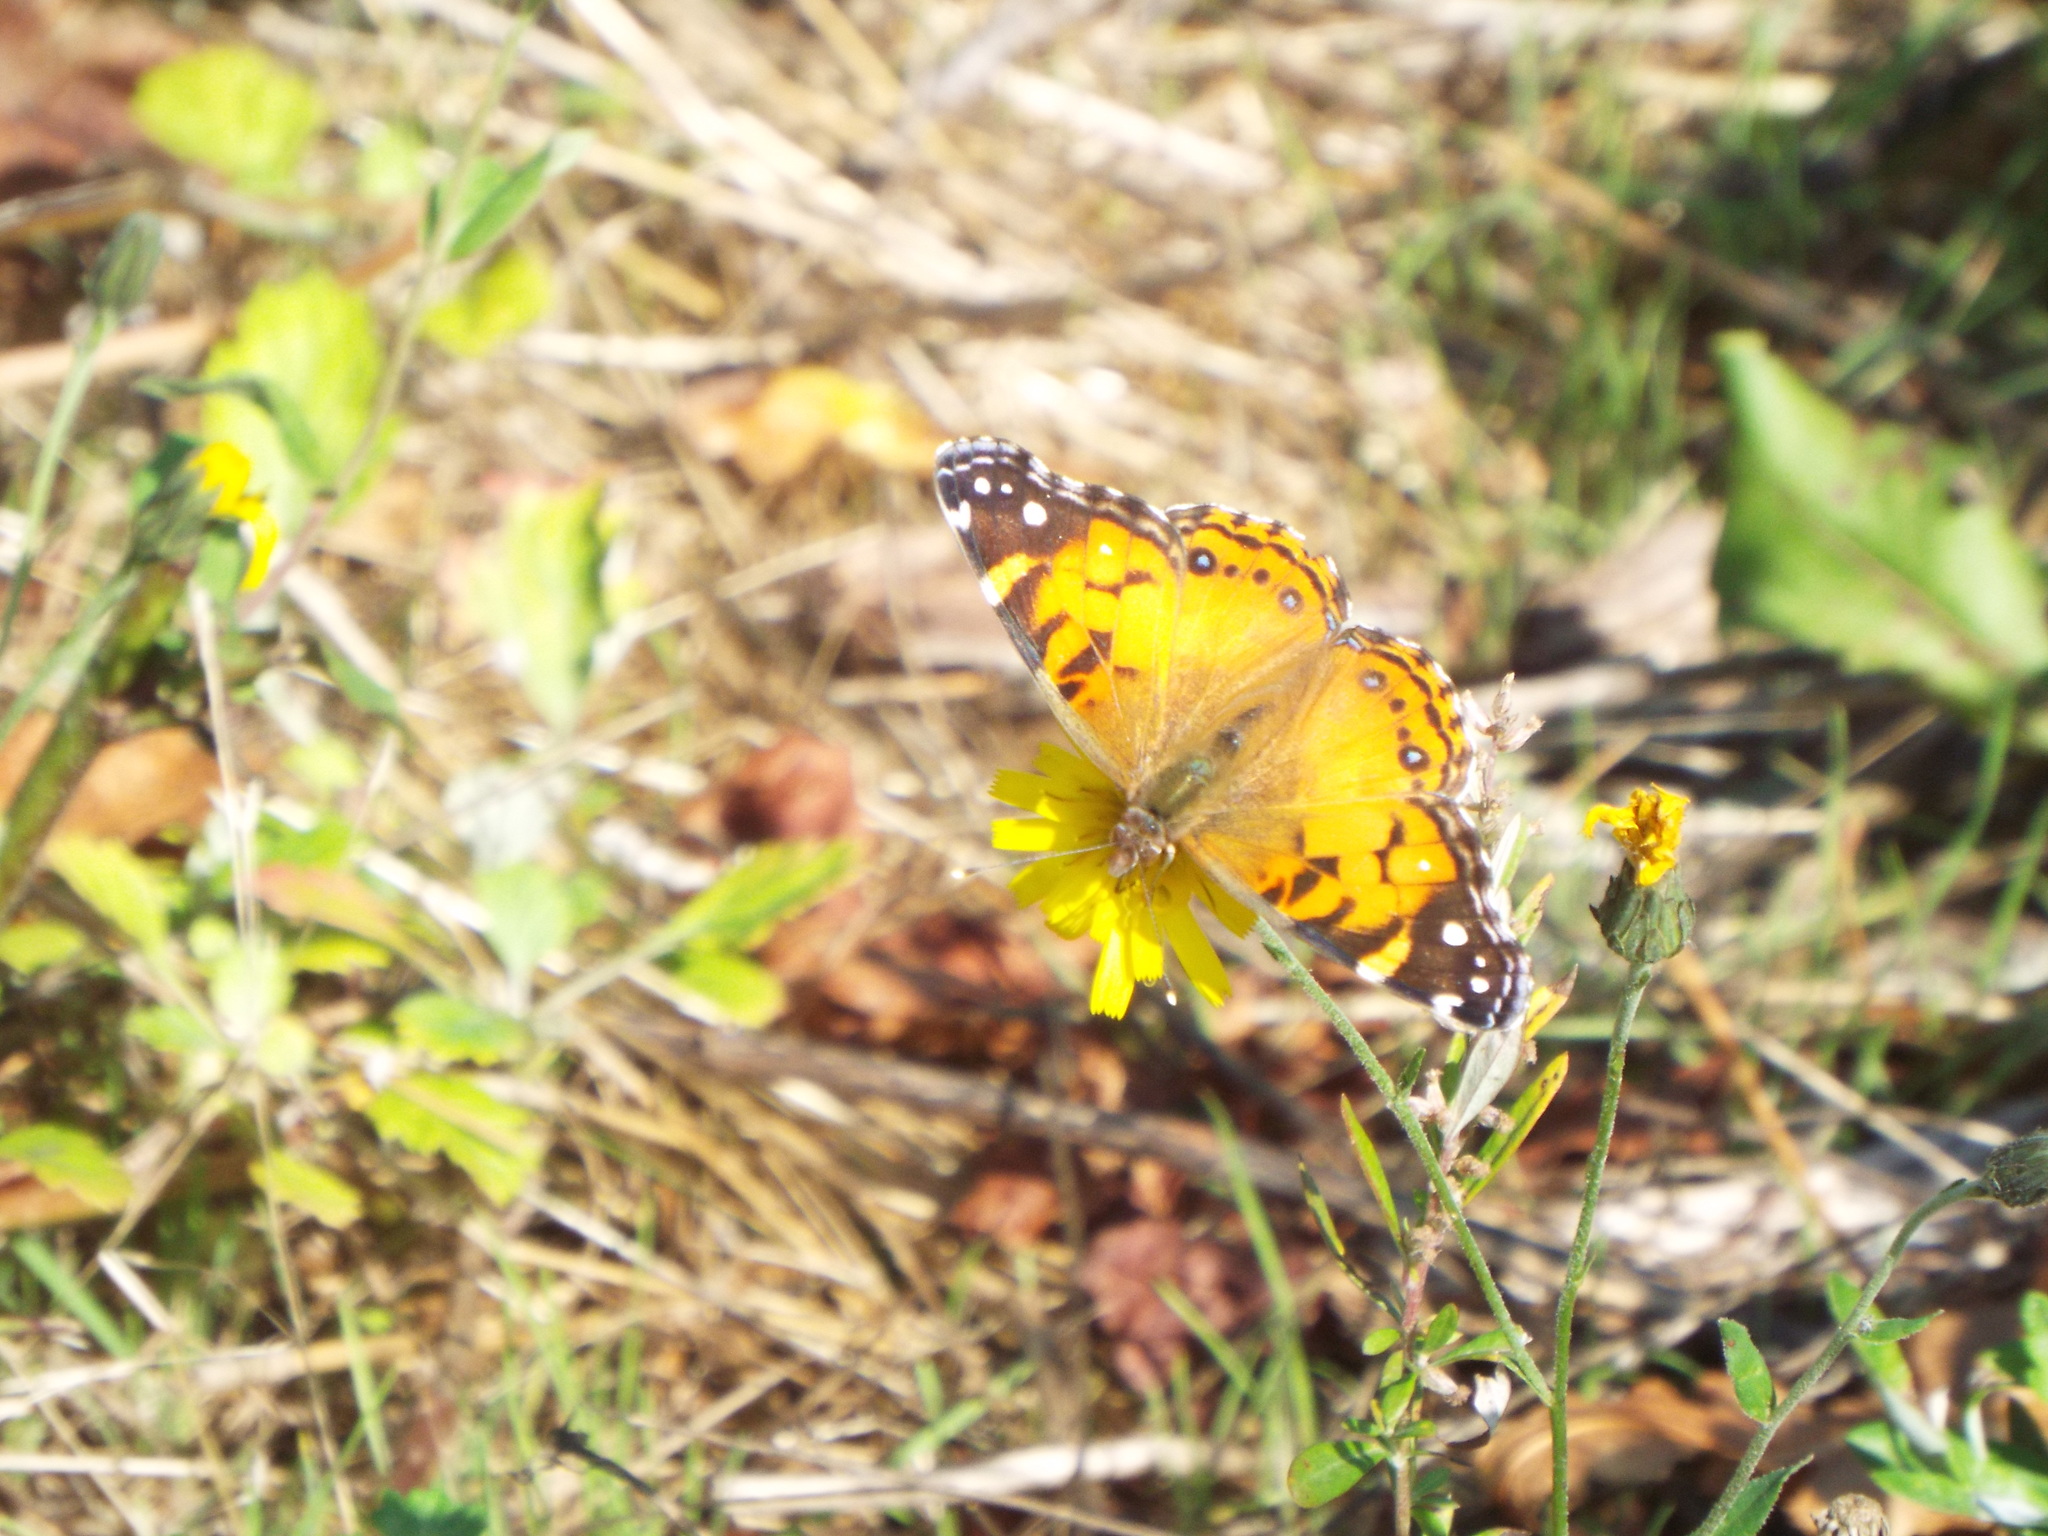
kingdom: Animalia
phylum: Arthropoda
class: Insecta
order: Lepidoptera
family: Nymphalidae
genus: Vanessa
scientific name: Vanessa virginiensis
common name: American lady
